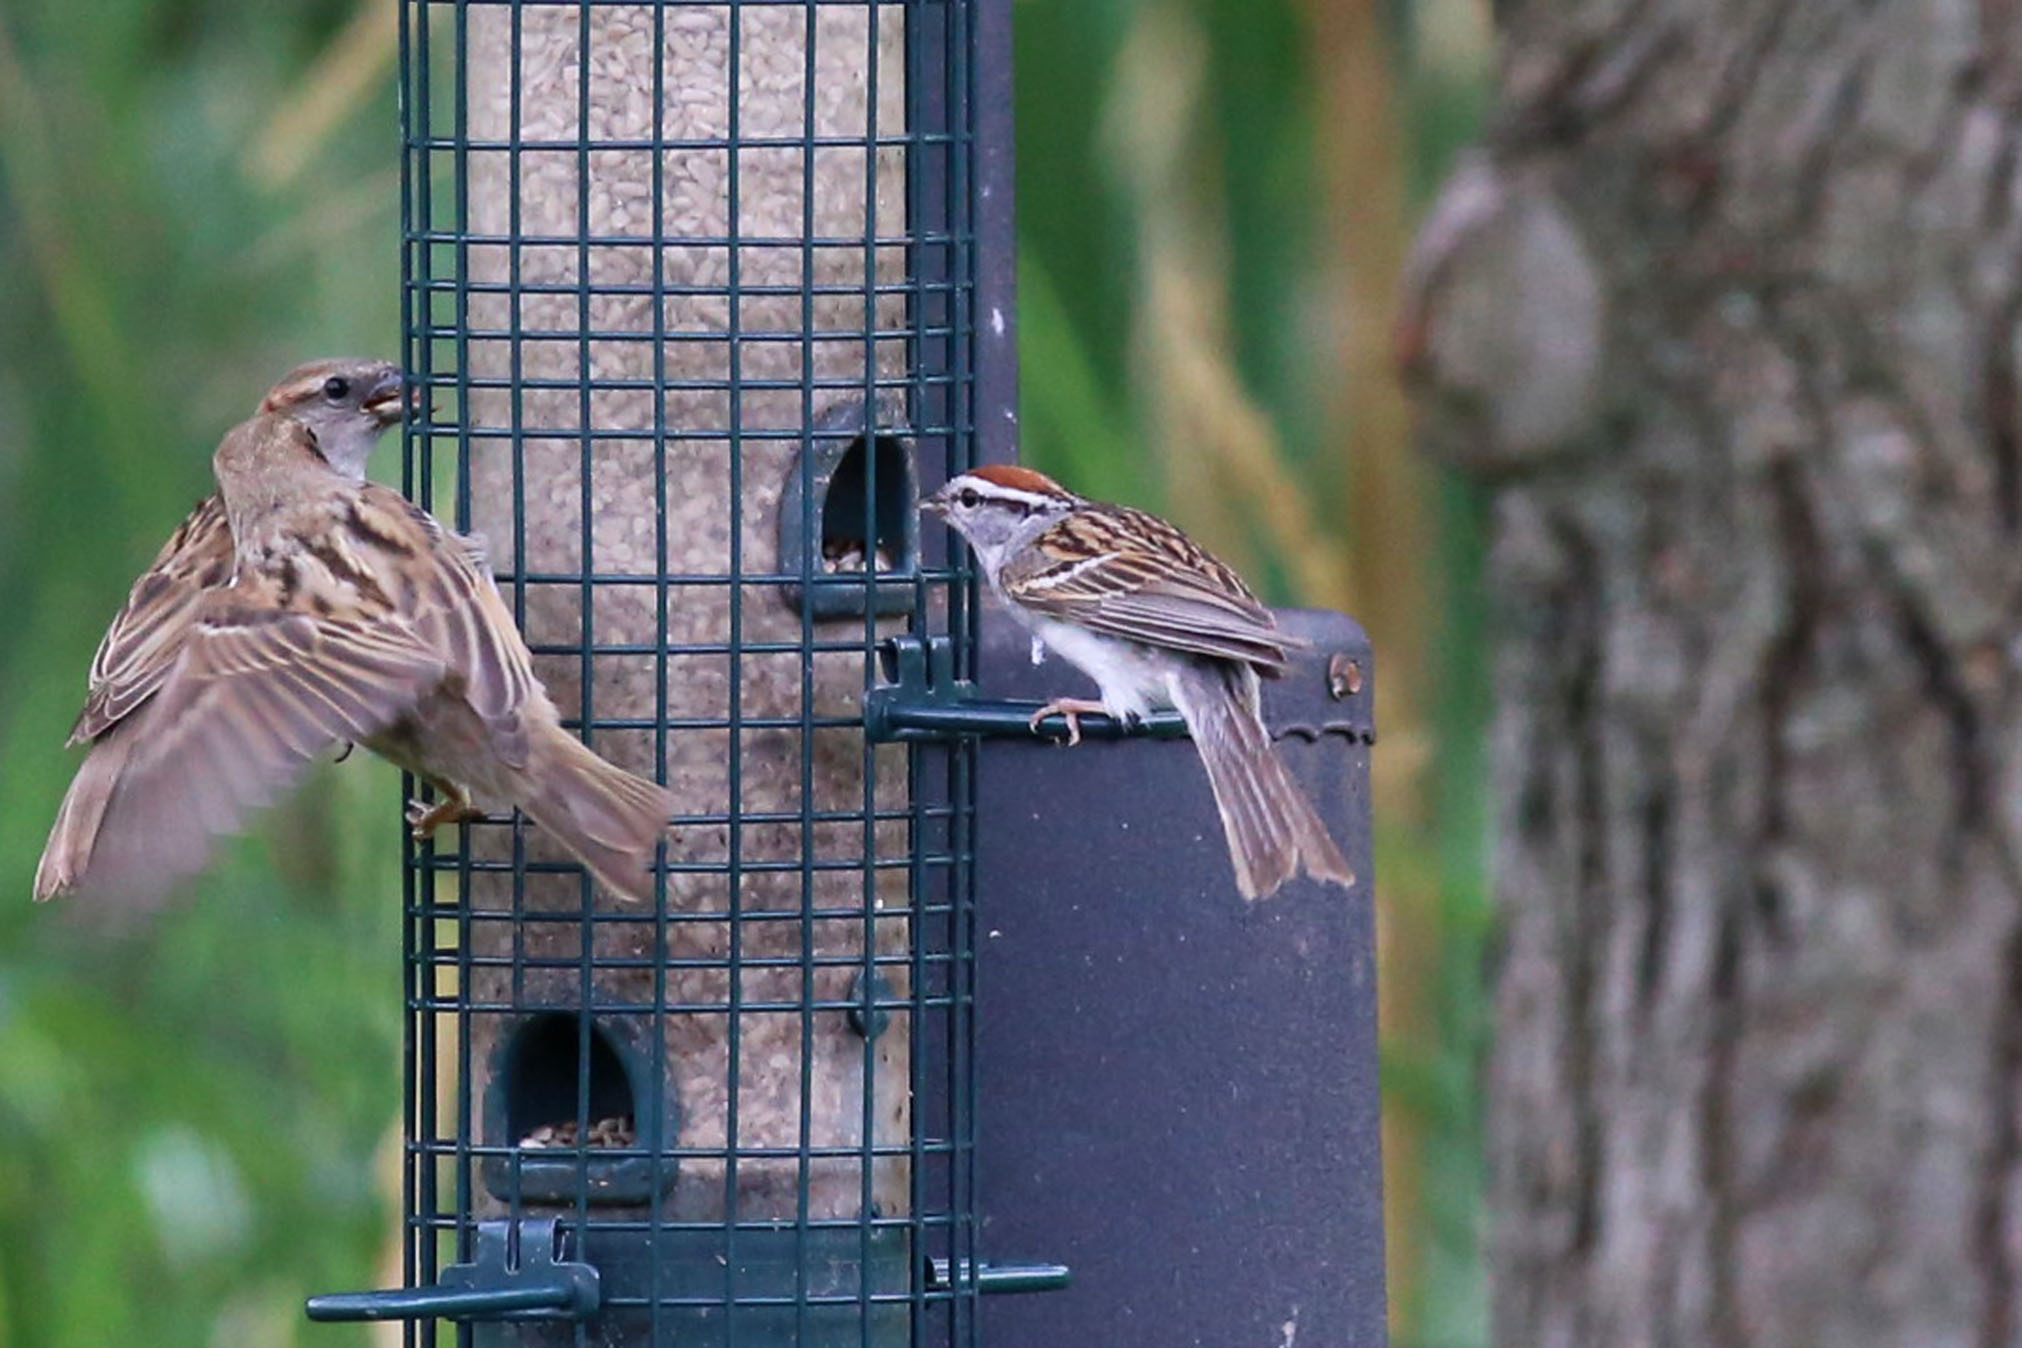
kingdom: Animalia
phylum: Chordata
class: Aves
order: Passeriformes
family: Passerellidae
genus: Spizella
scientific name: Spizella passerina
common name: Chipping sparrow
